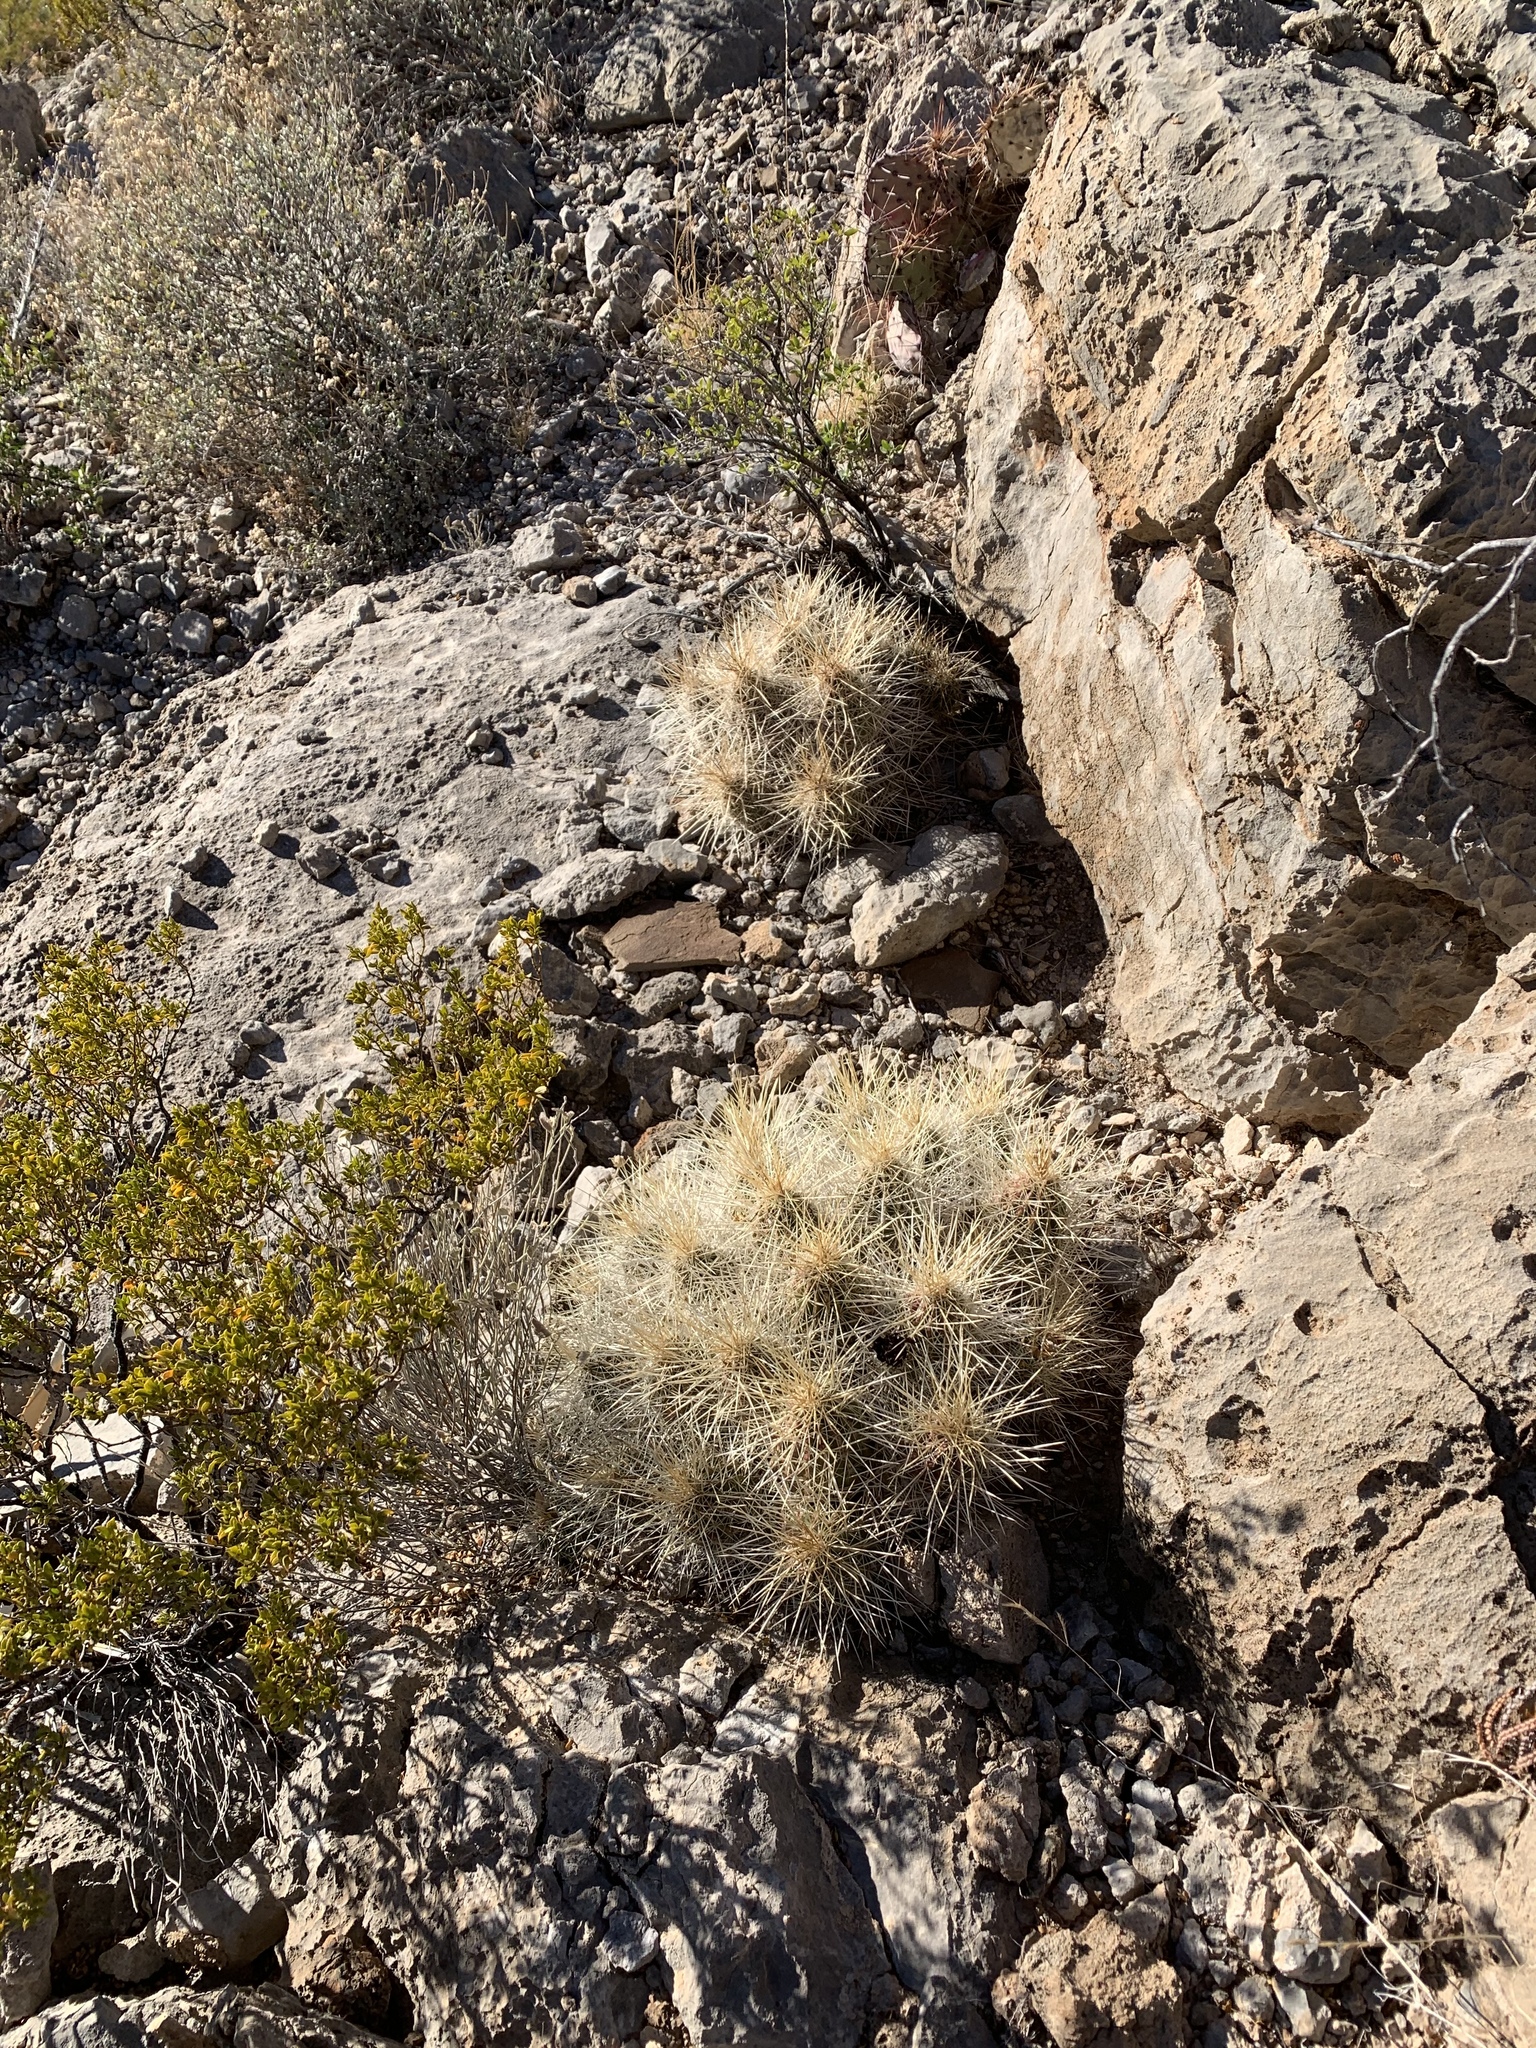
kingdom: Plantae
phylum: Tracheophyta
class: Magnoliopsida
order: Caryophyllales
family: Cactaceae
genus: Echinocereus
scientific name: Echinocereus stramineus
